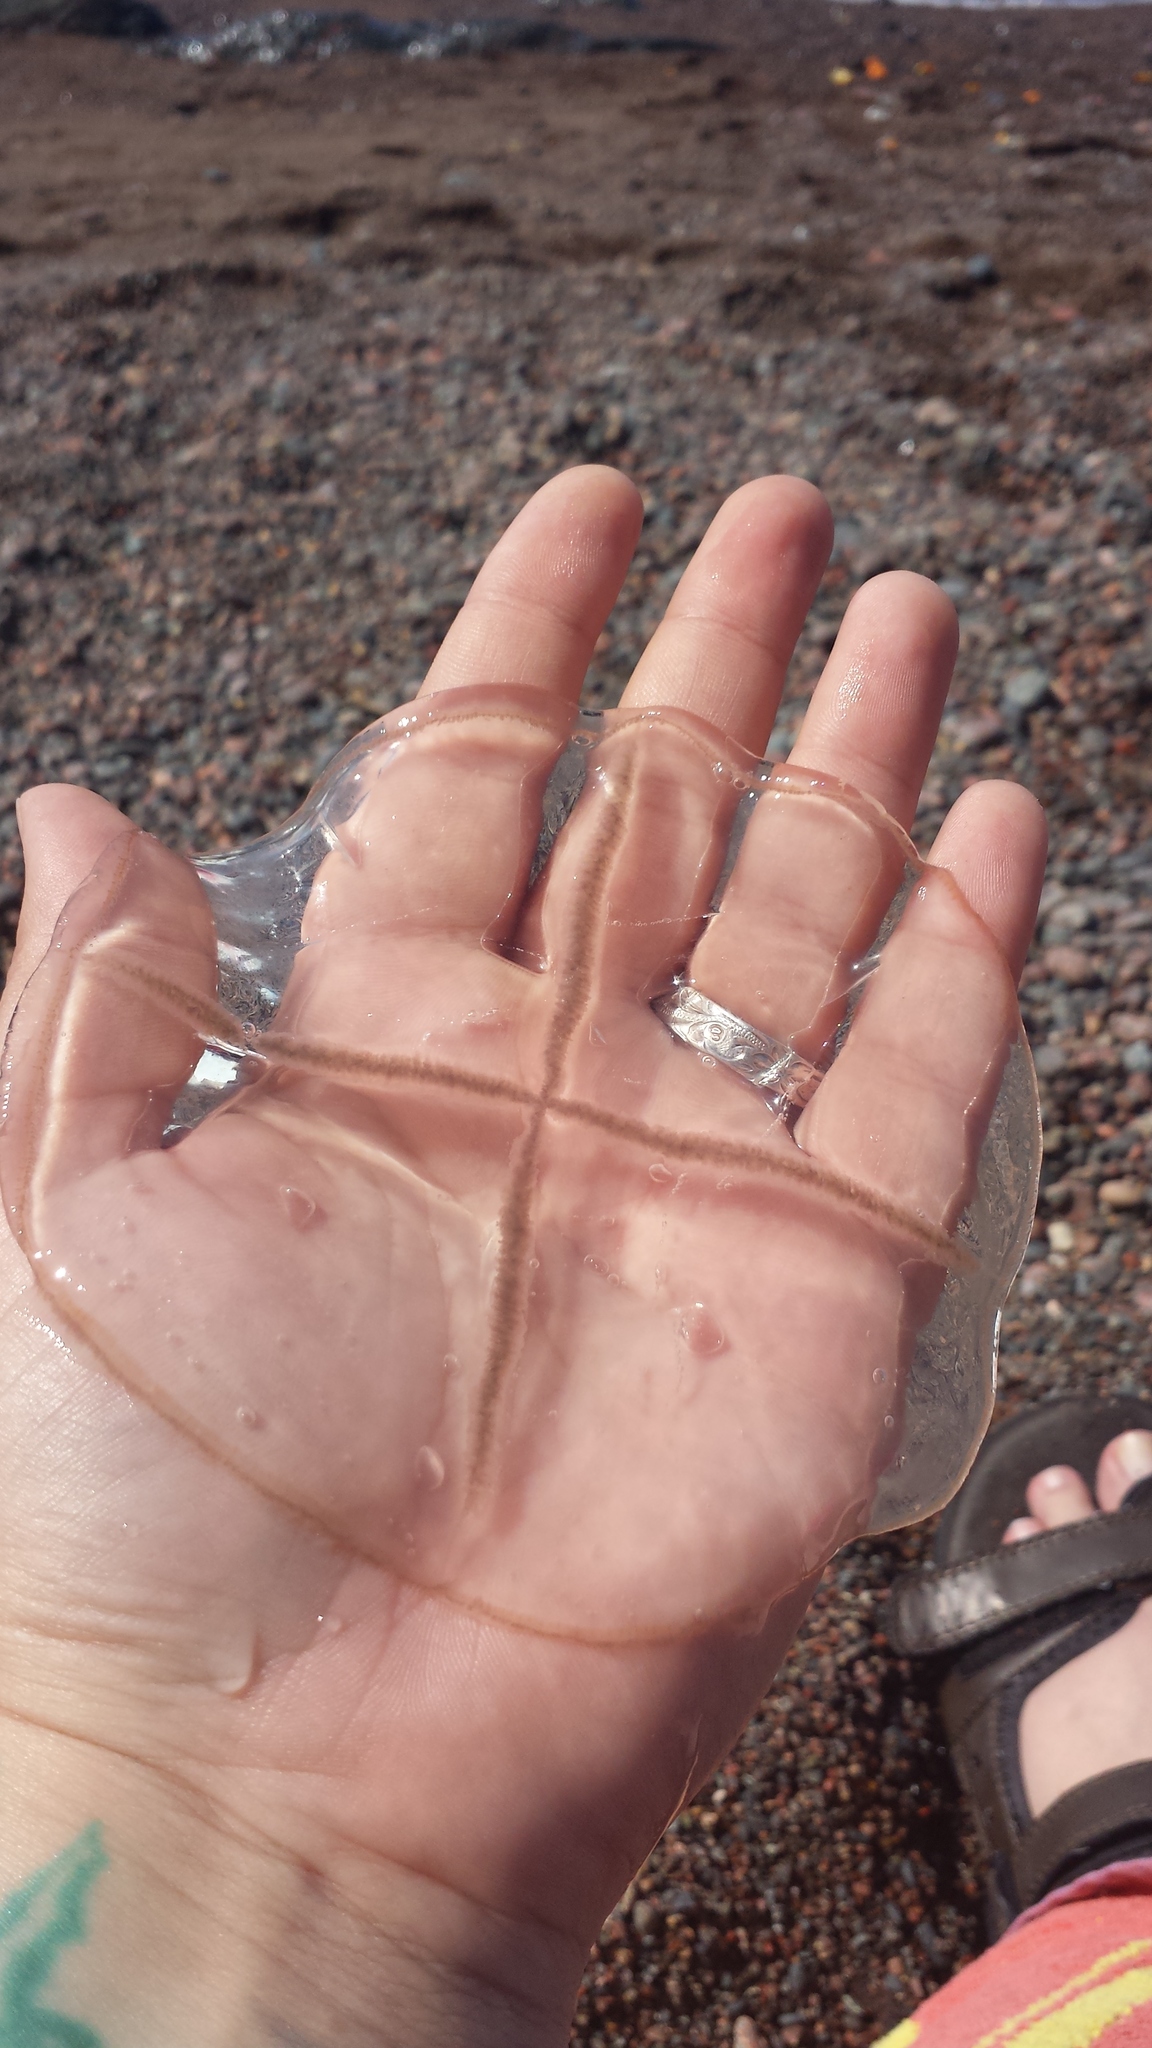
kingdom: Animalia
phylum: Cnidaria
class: Hydrozoa
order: Leptothecata
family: Laodiceidae
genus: Staurostoma
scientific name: Staurostoma mertensii
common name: Whitecross jellyfish
